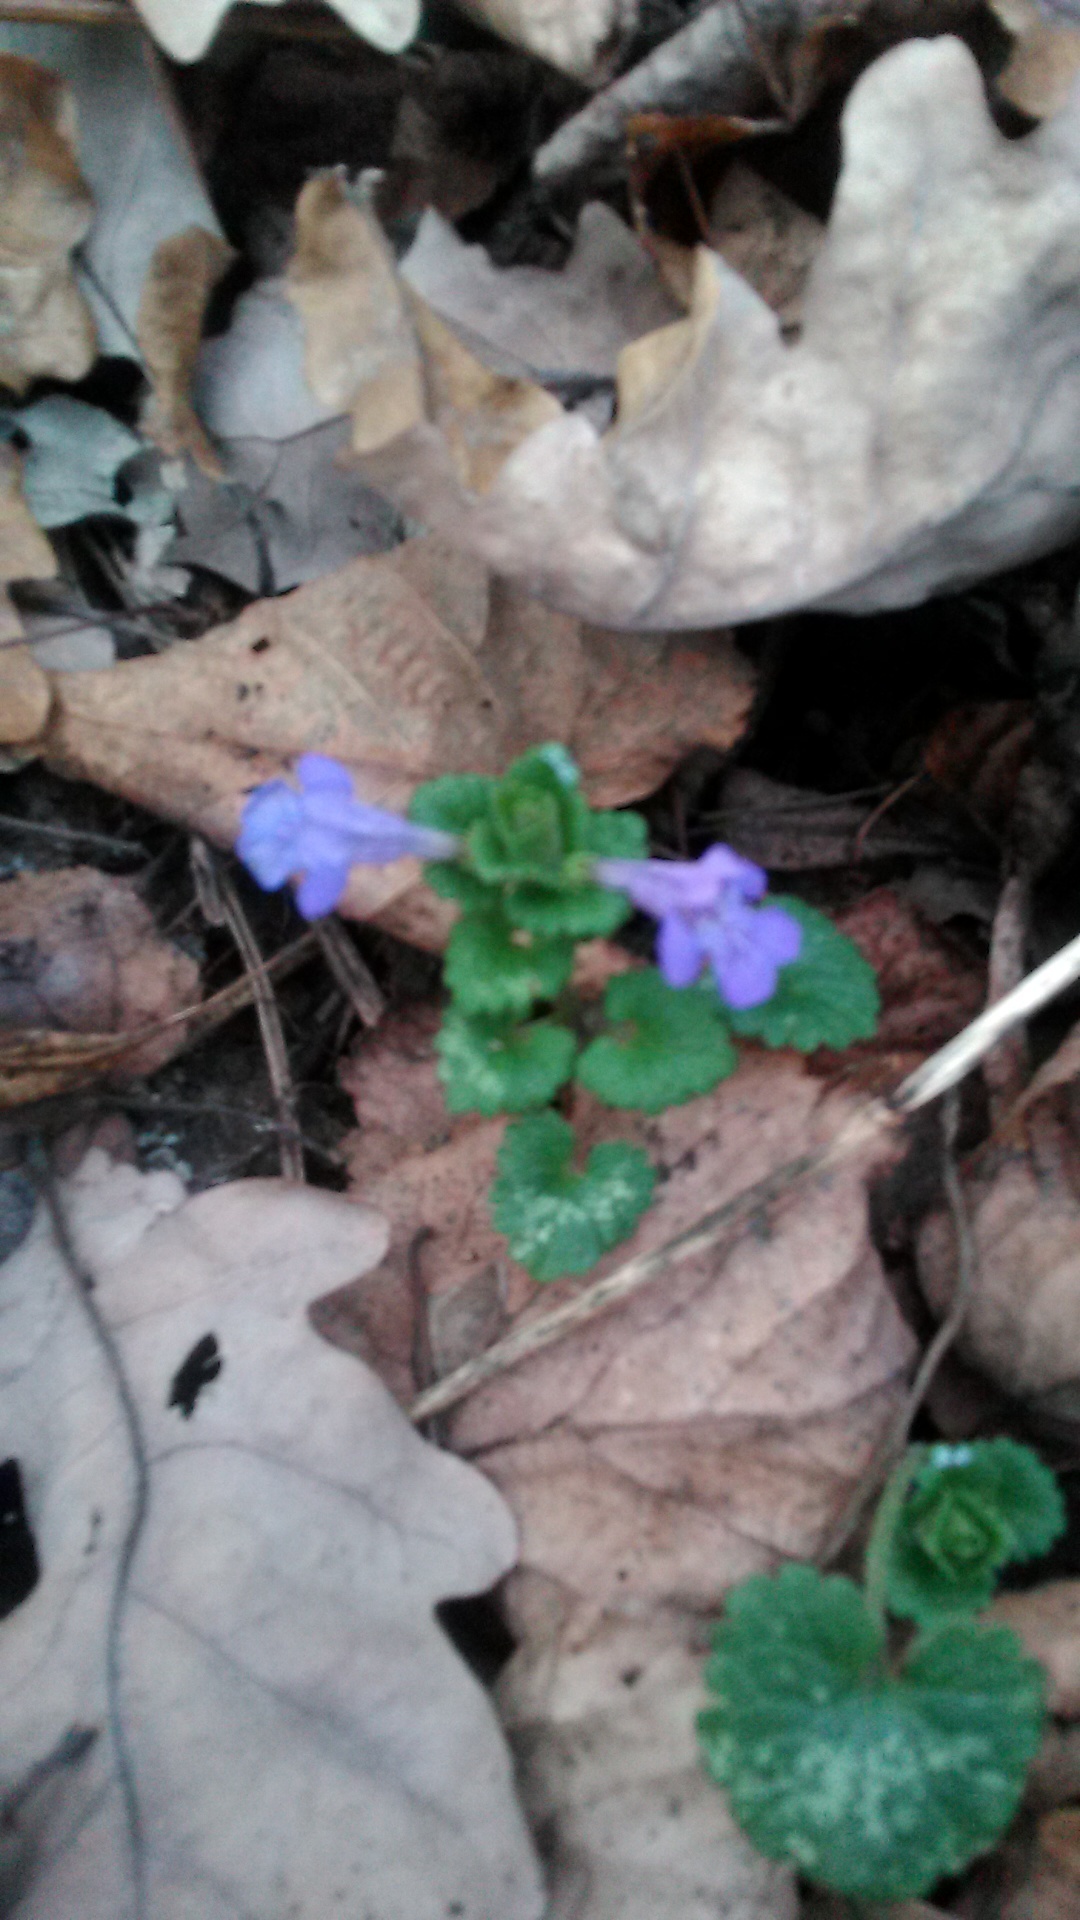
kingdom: Plantae
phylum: Tracheophyta
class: Magnoliopsida
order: Lamiales
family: Lamiaceae
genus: Glechoma
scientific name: Glechoma hederacea
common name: Ground ivy
